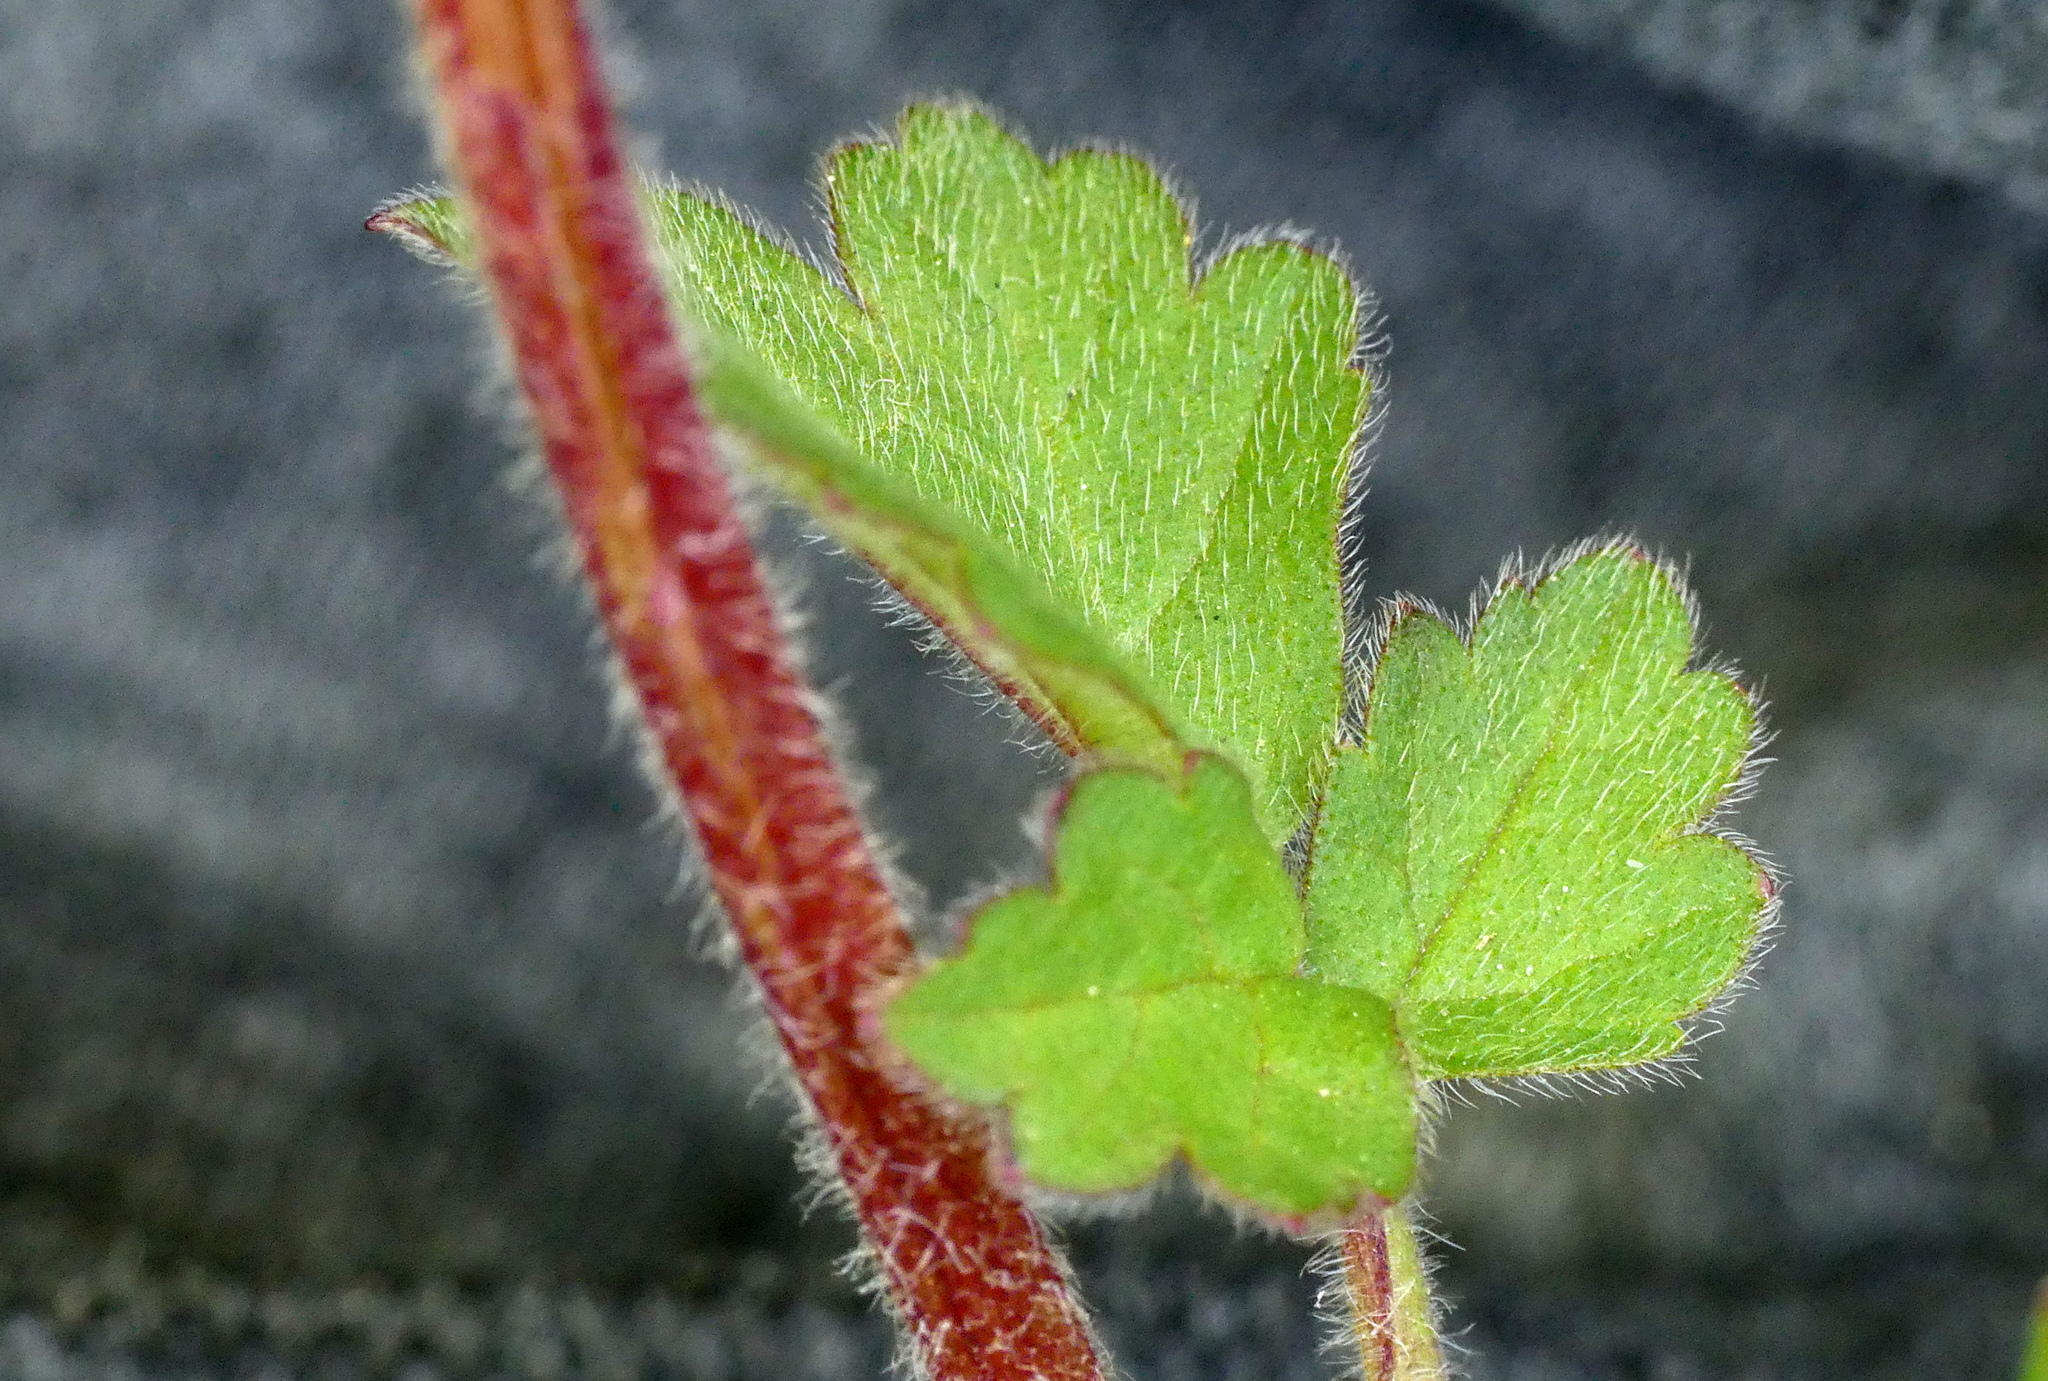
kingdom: Plantae
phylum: Tracheophyta
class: Magnoliopsida
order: Rosales
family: Rosaceae
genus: Geum
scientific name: Geum rivale
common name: Water avens
